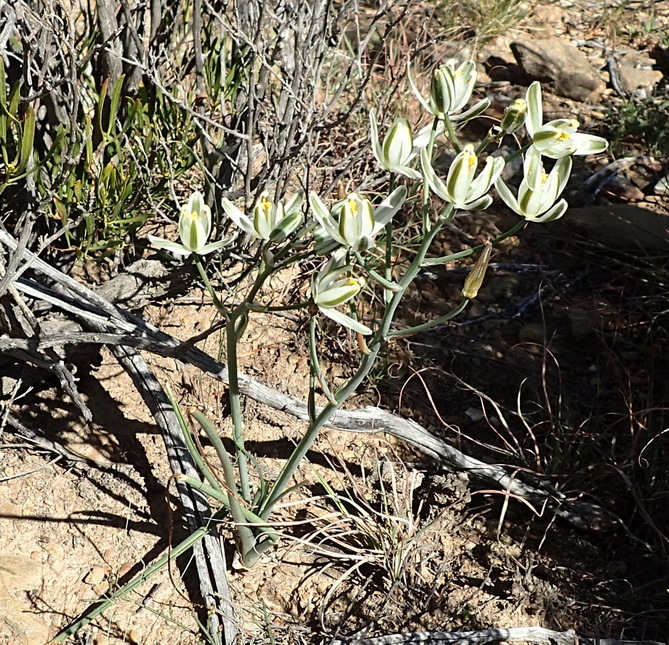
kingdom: Plantae
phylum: Tracheophyta
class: Liliopsida
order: Asparagales
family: Asparagaceae
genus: Albuca
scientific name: Albuca longipes
